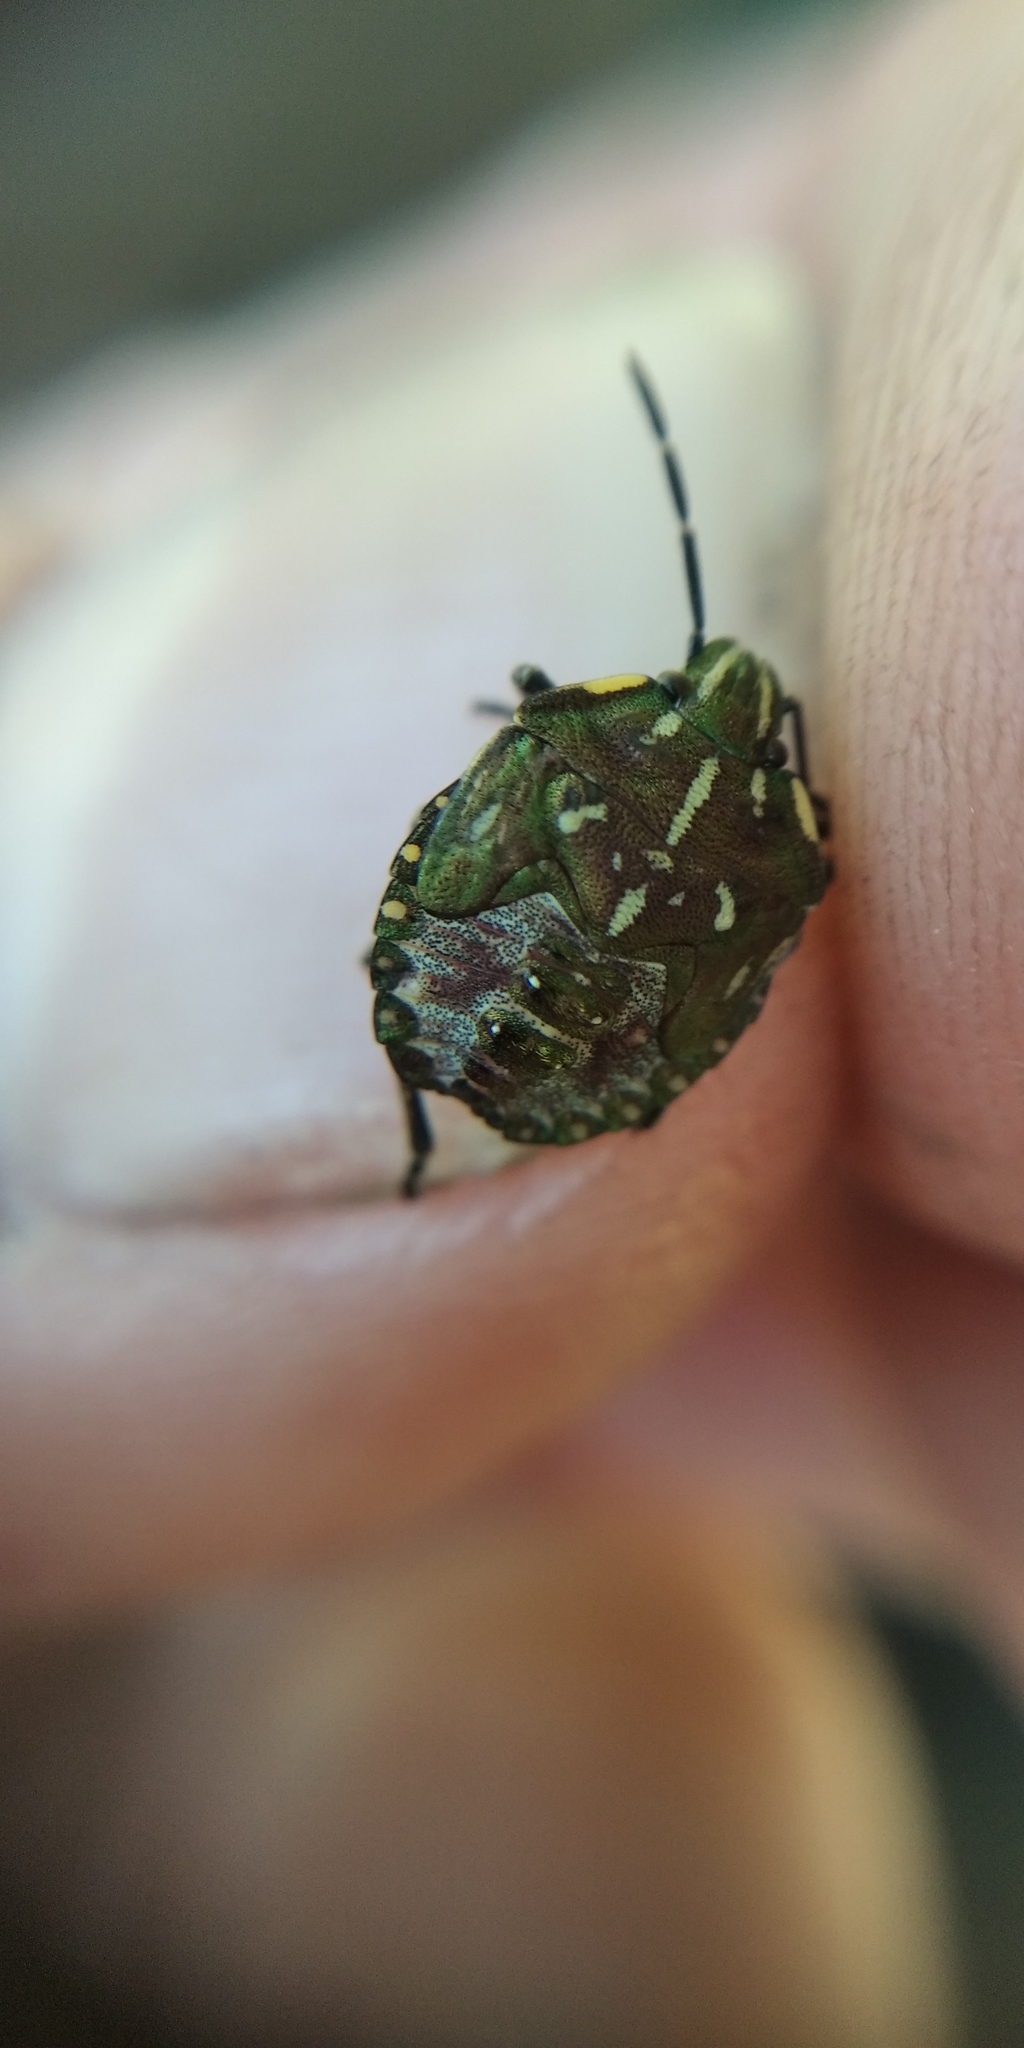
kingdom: Animalia
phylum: Arthropoda
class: Insecta
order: Hemiptera
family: Pentatomidae
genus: Carpocoris
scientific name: Carpocoris purpureipennis
